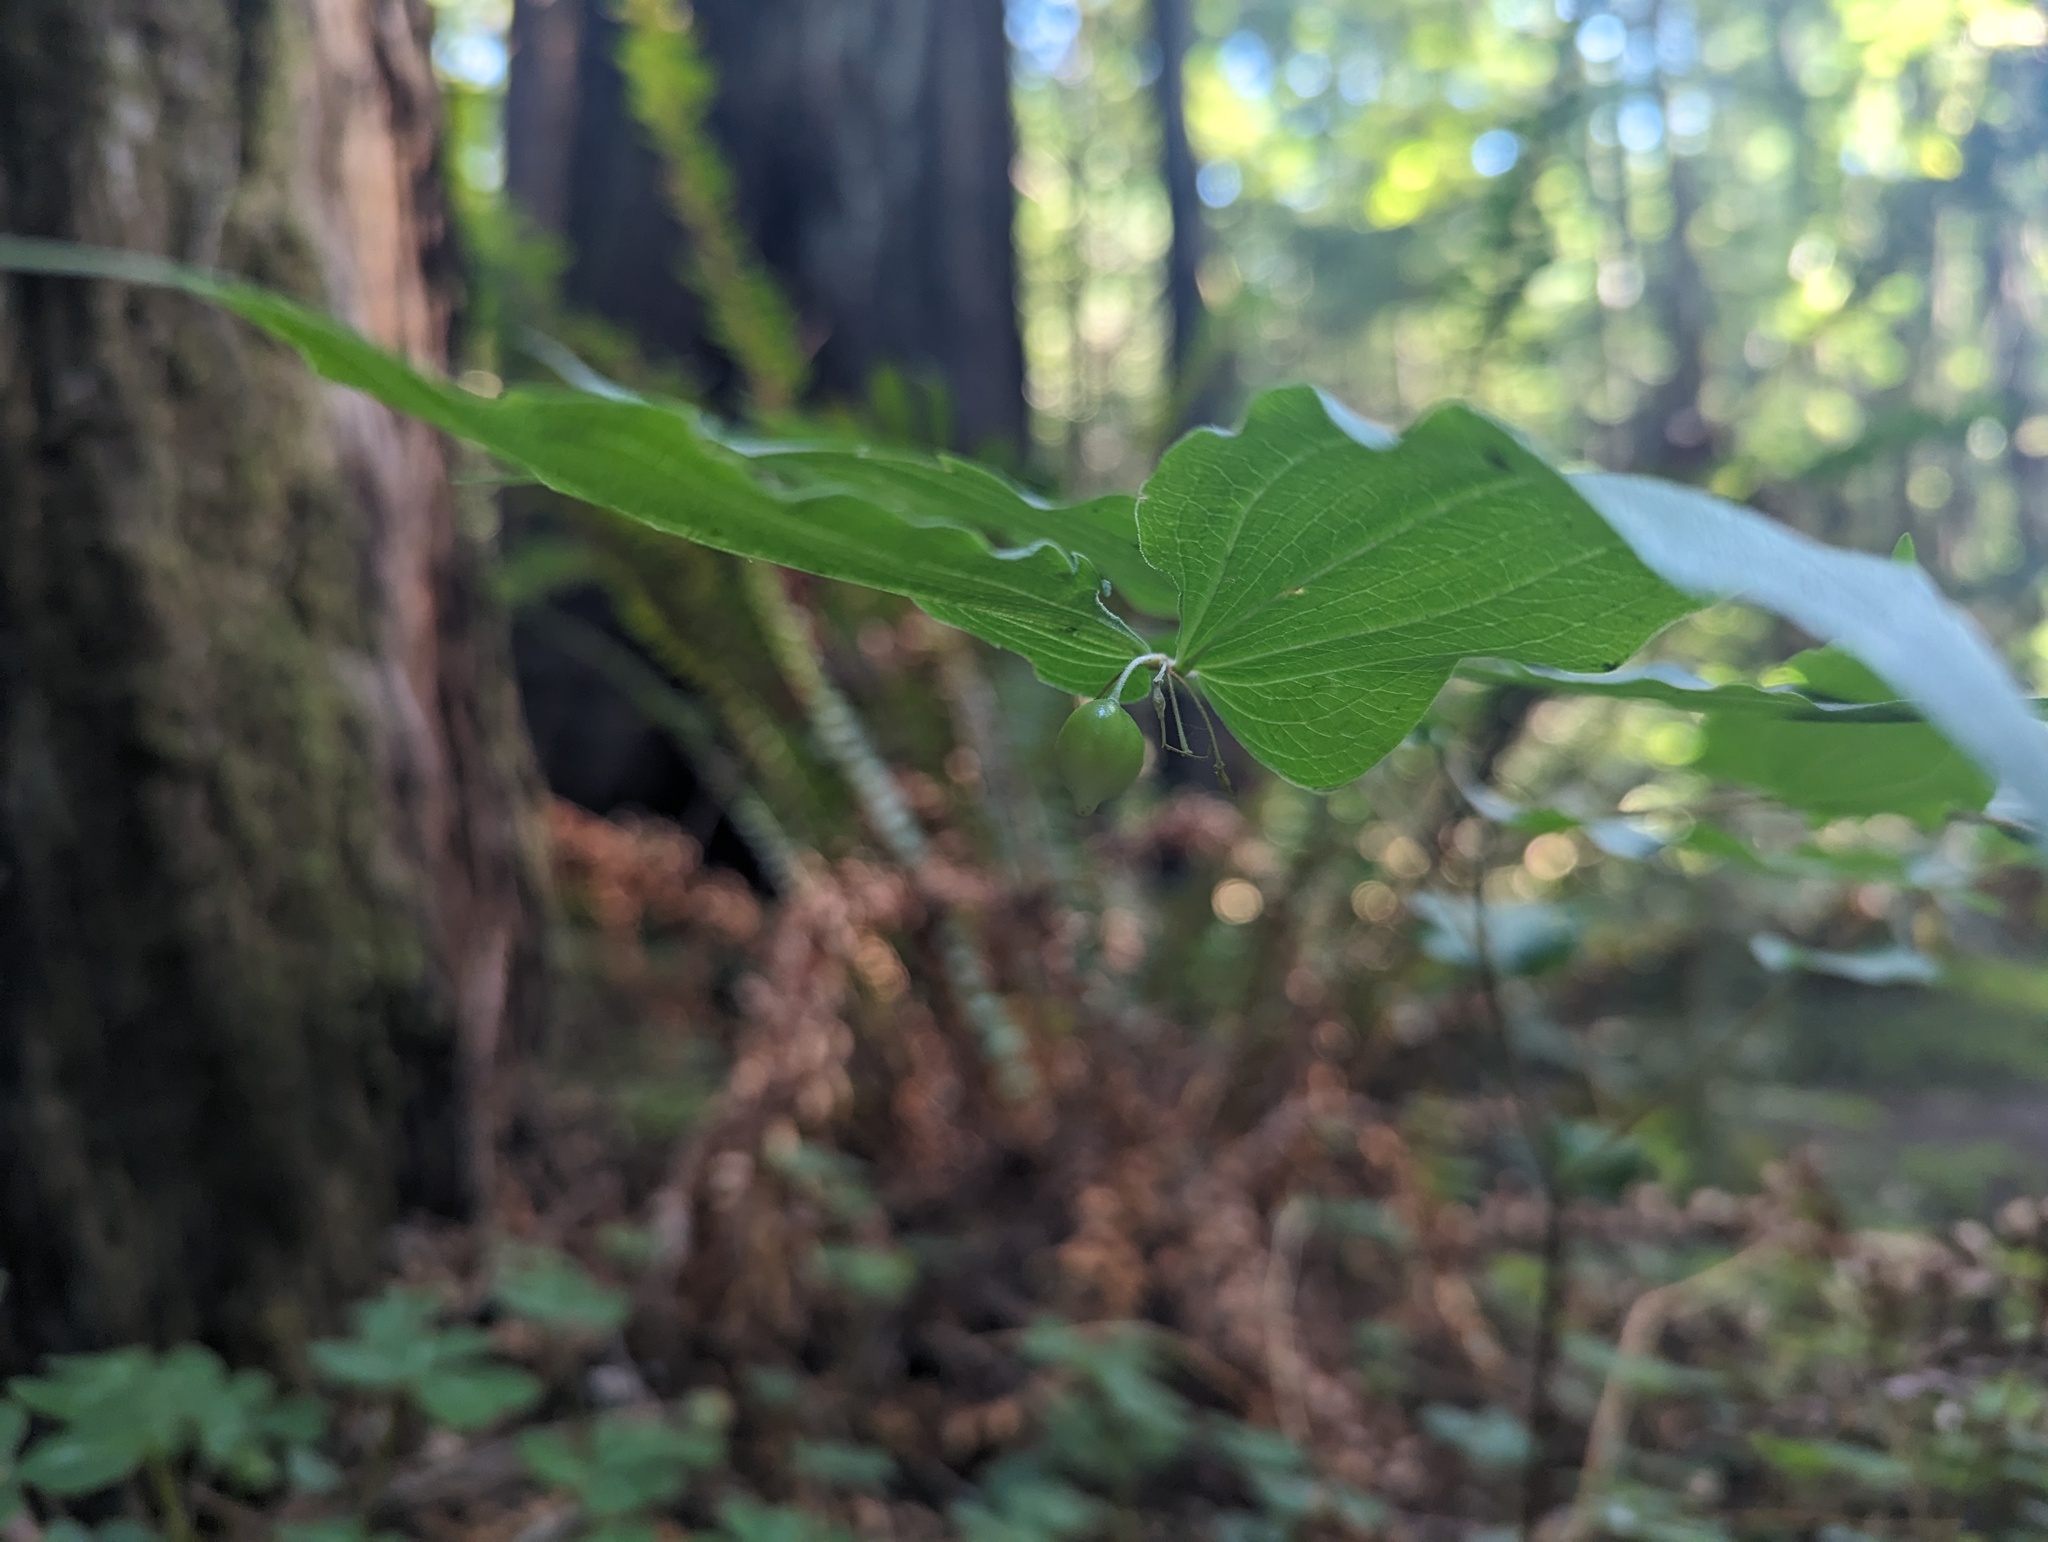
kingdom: Plantae
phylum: Tracheophyta
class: Liliopsida
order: Liliales
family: Liliaceae
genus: Prosartes
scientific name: Prosartes hookeri
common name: Fairy-bells
